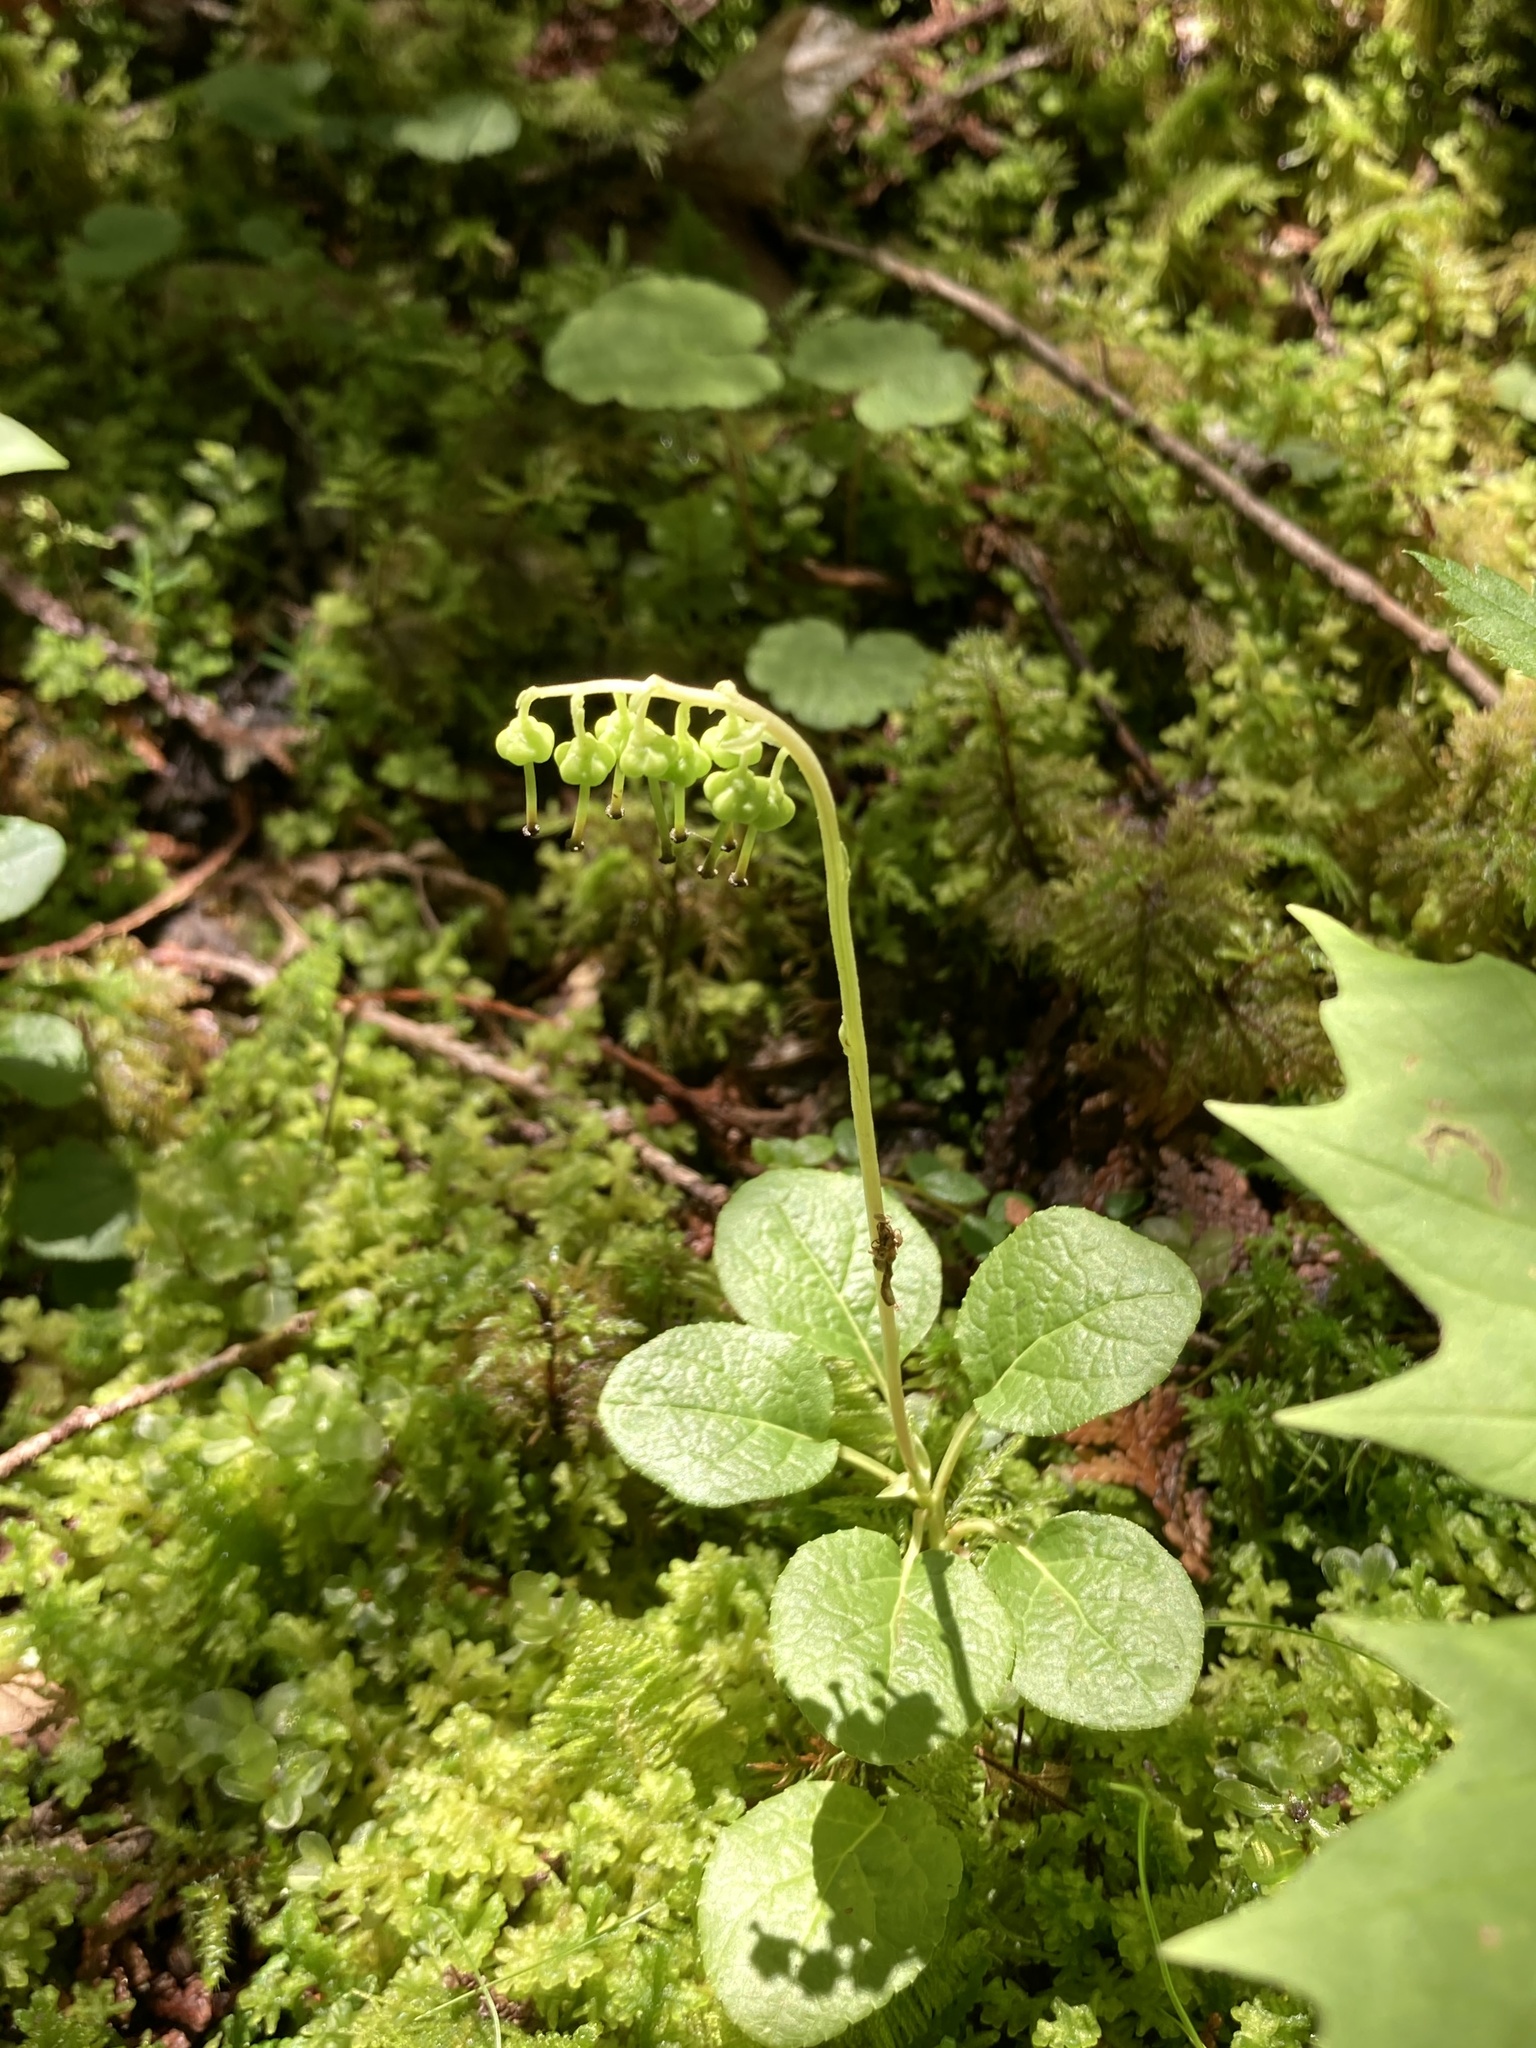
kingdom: Plantae
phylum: Tracheophyta
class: Magnoliopsida
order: Ericales
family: Ericaceae
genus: Orthilia
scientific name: Orthilia secunda
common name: One-sided orthilia
